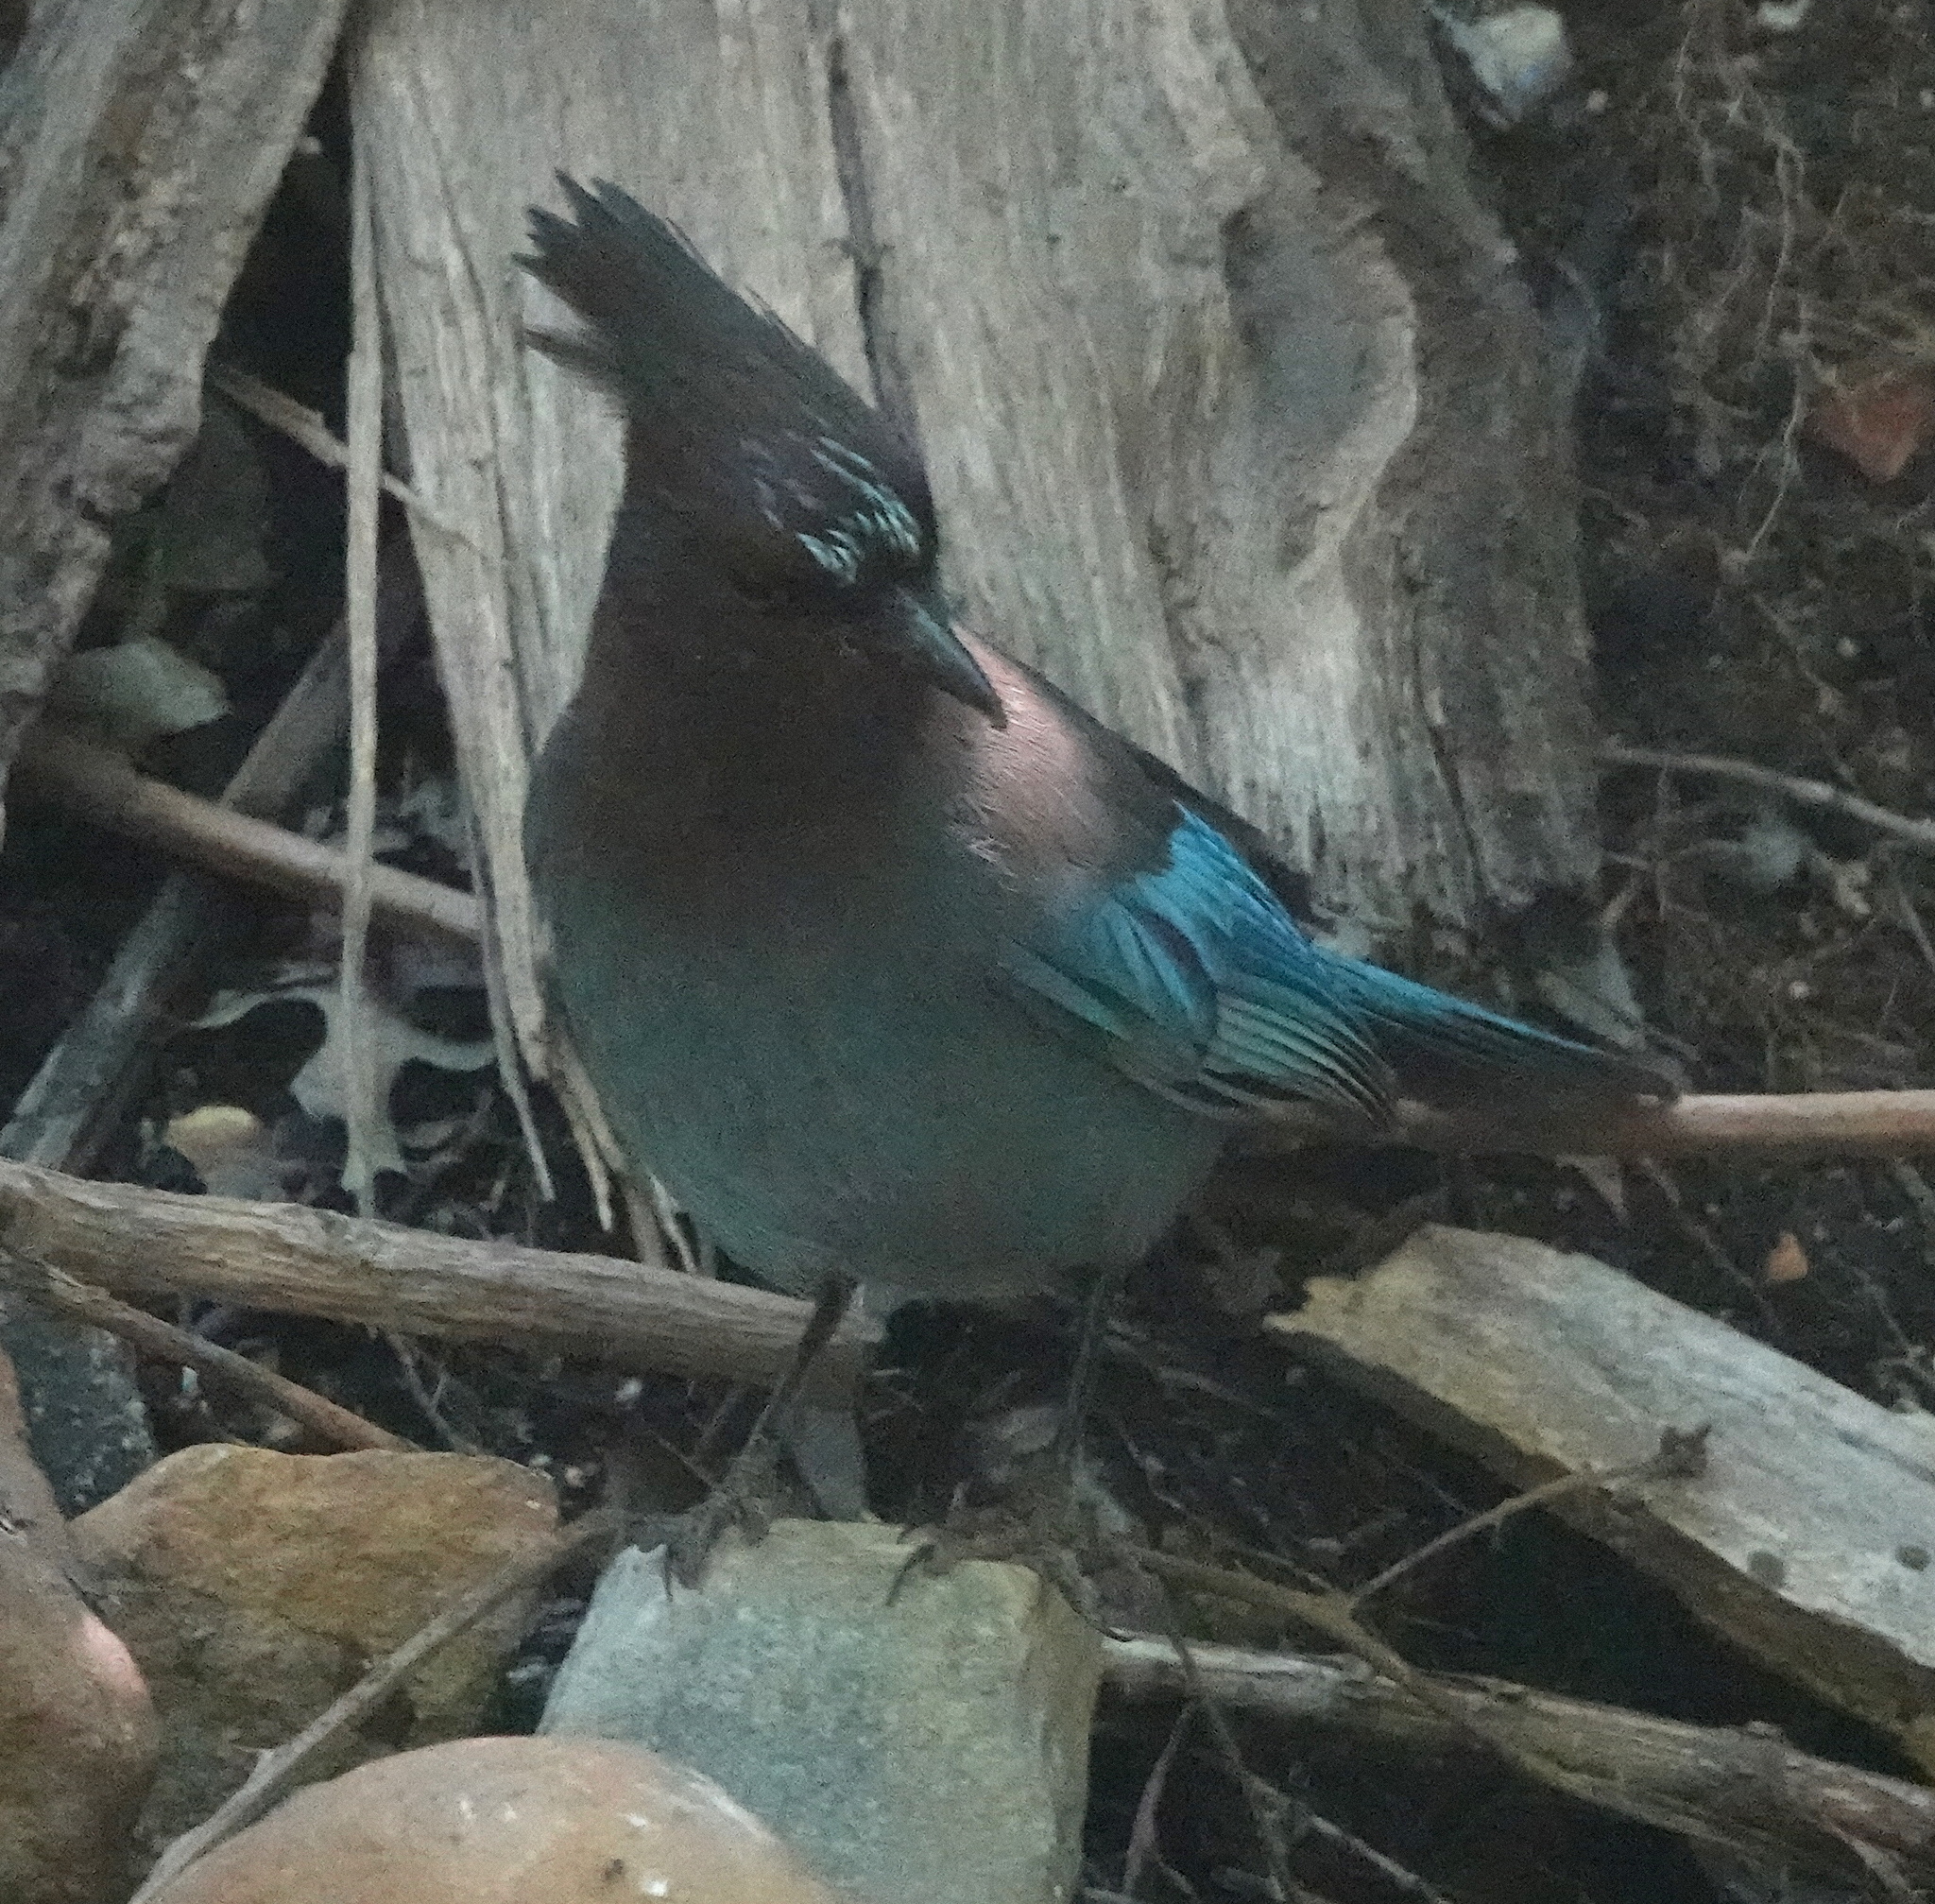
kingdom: Animalia
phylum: Chordata
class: Aves
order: Passeriformes
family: Corvidae
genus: Cyanocitta
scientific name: Cyanocitta stelleri
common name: Steller's jay
